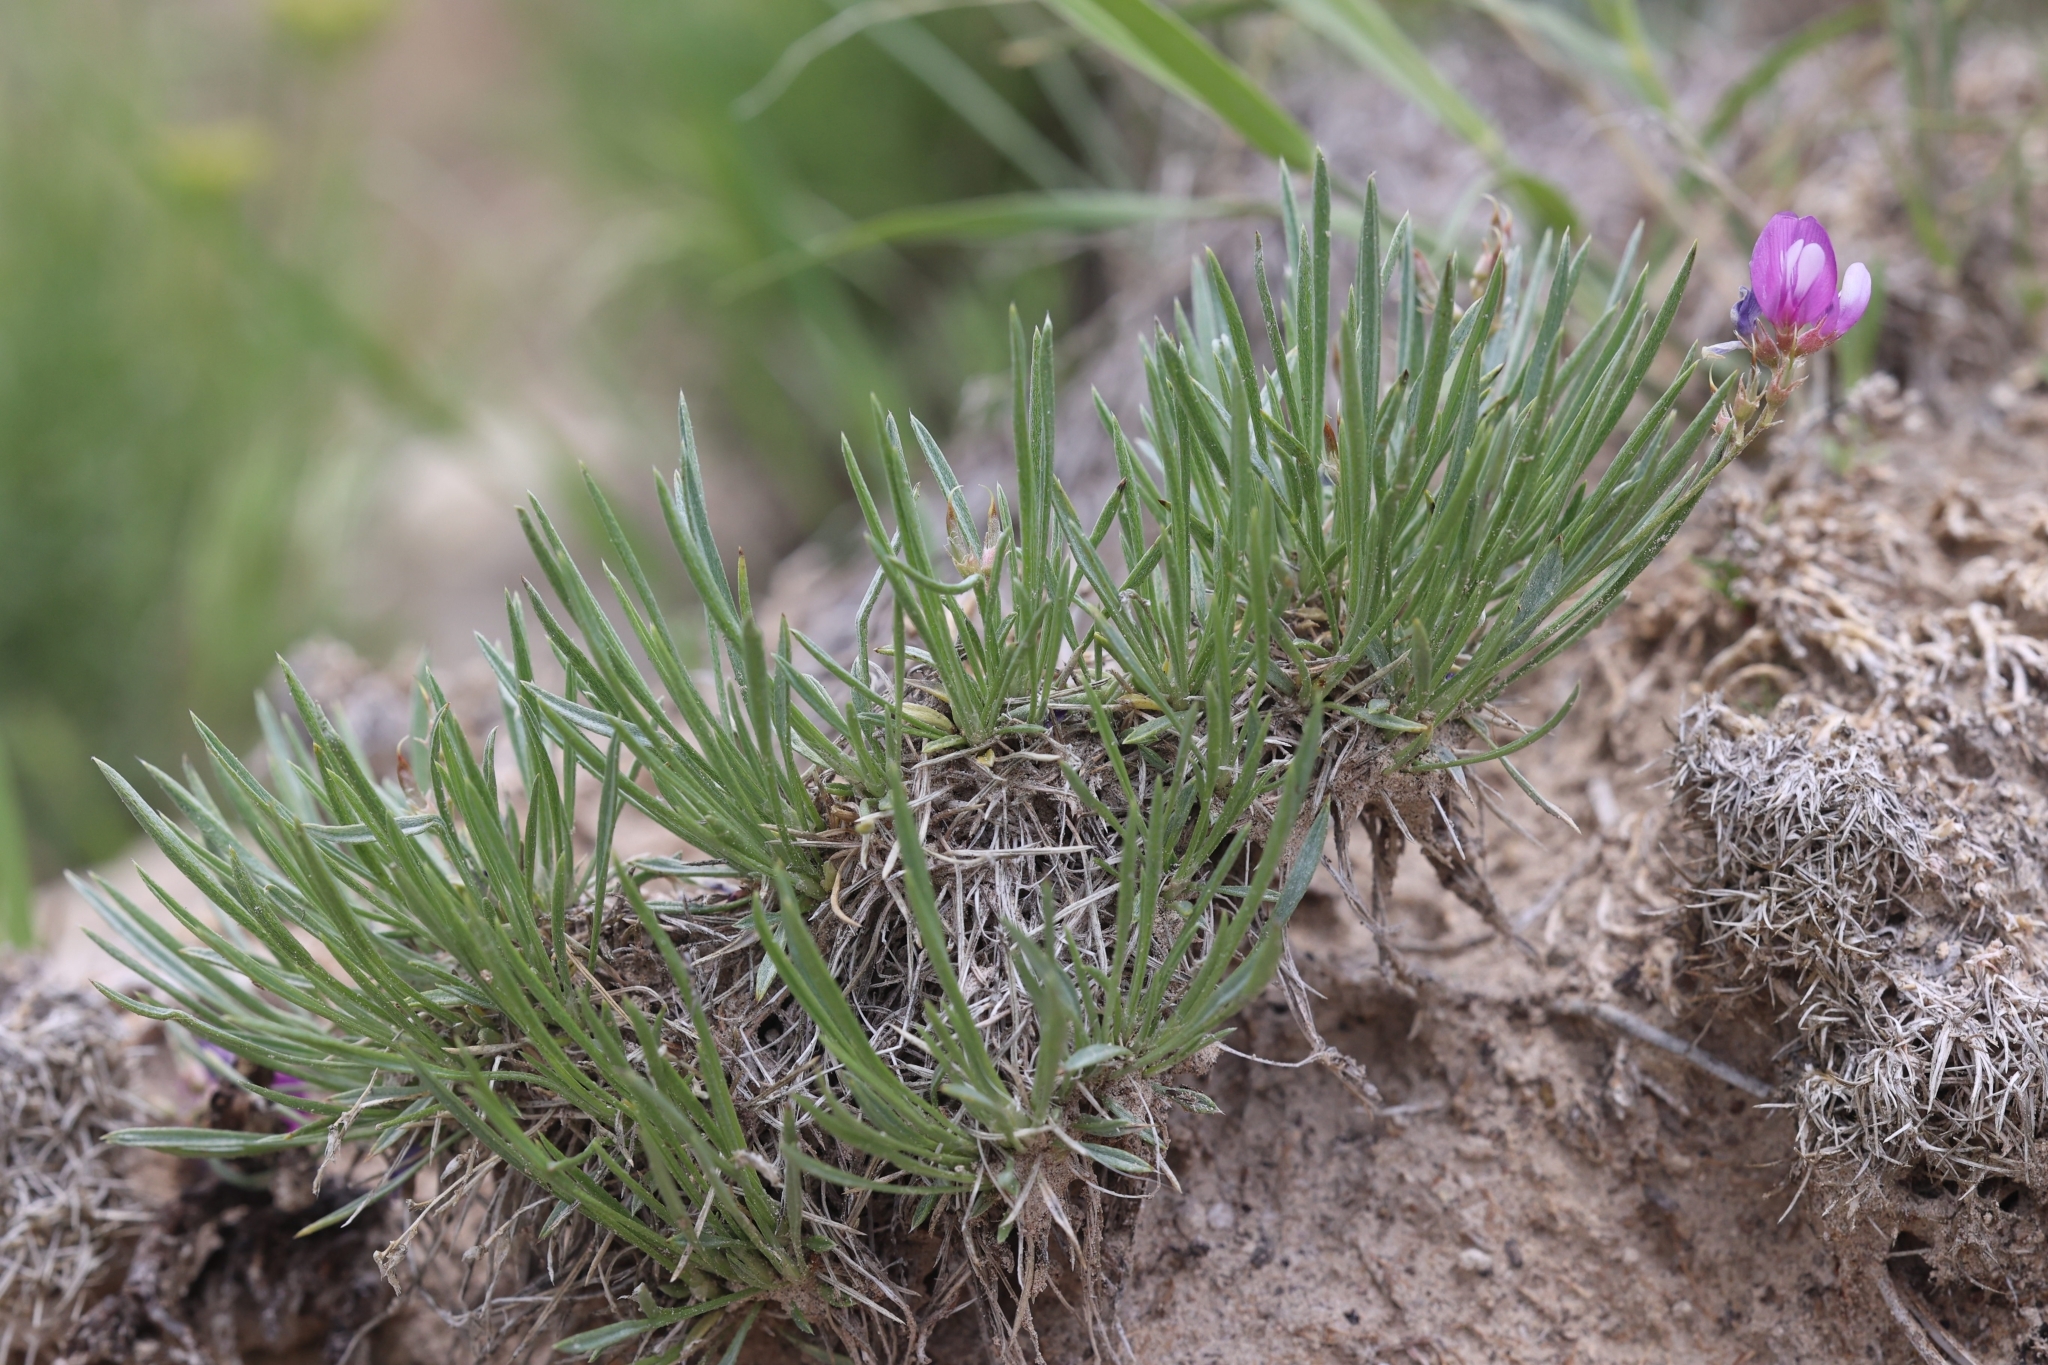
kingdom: Plantae
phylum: Tracheophyta
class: Magnoliopsida
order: Fabales
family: Fabaceae
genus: Astragalus
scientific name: Astragalus spatulatus
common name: Draba milk-vetch
